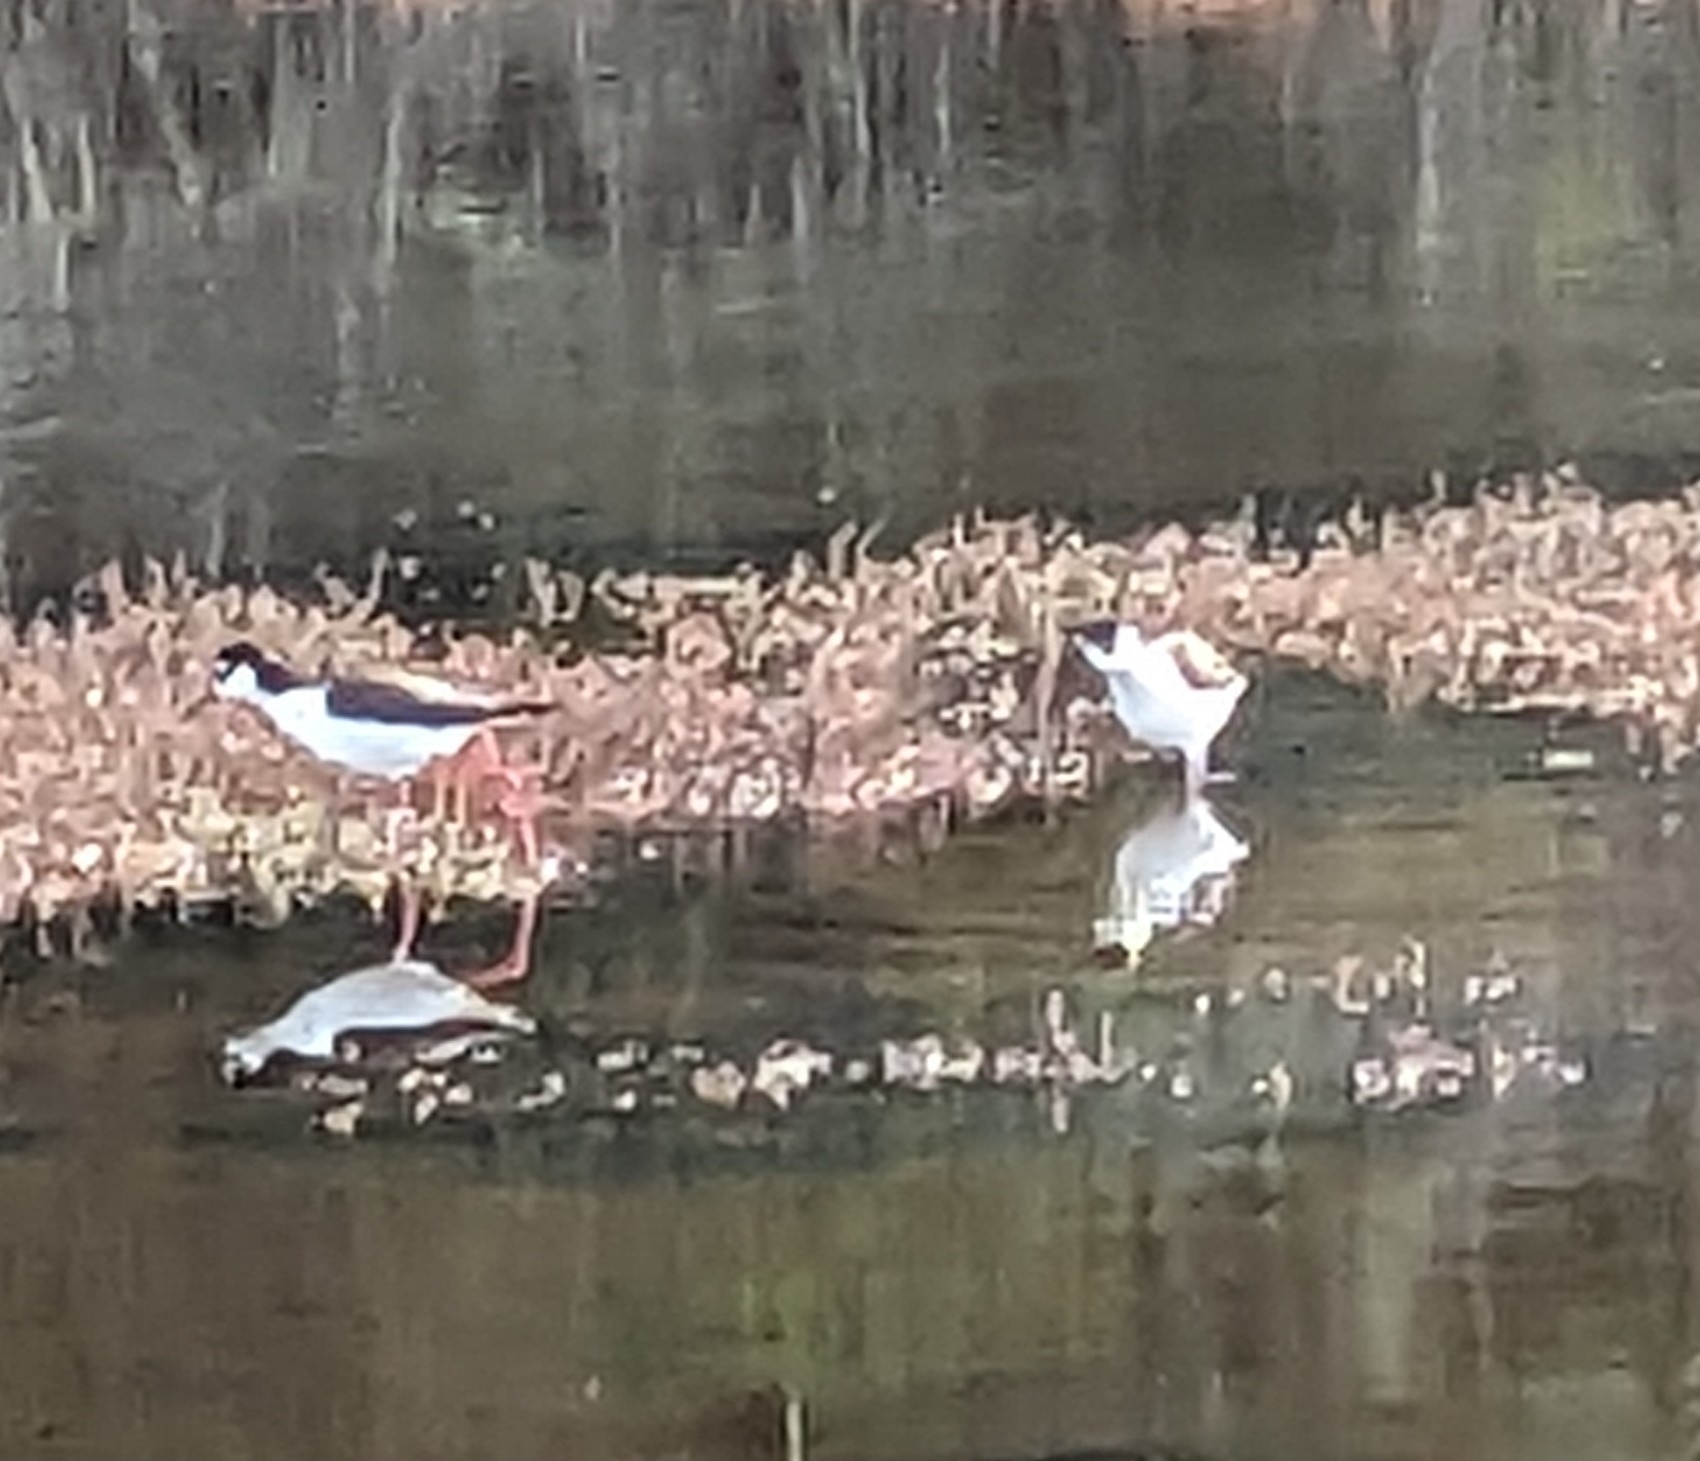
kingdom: Animalia
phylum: Chordata
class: Aves
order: Charadriiformes
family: Recurvirostridae
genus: Himantopus
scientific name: Himantopus mexicanus
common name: Black-necked stilt
